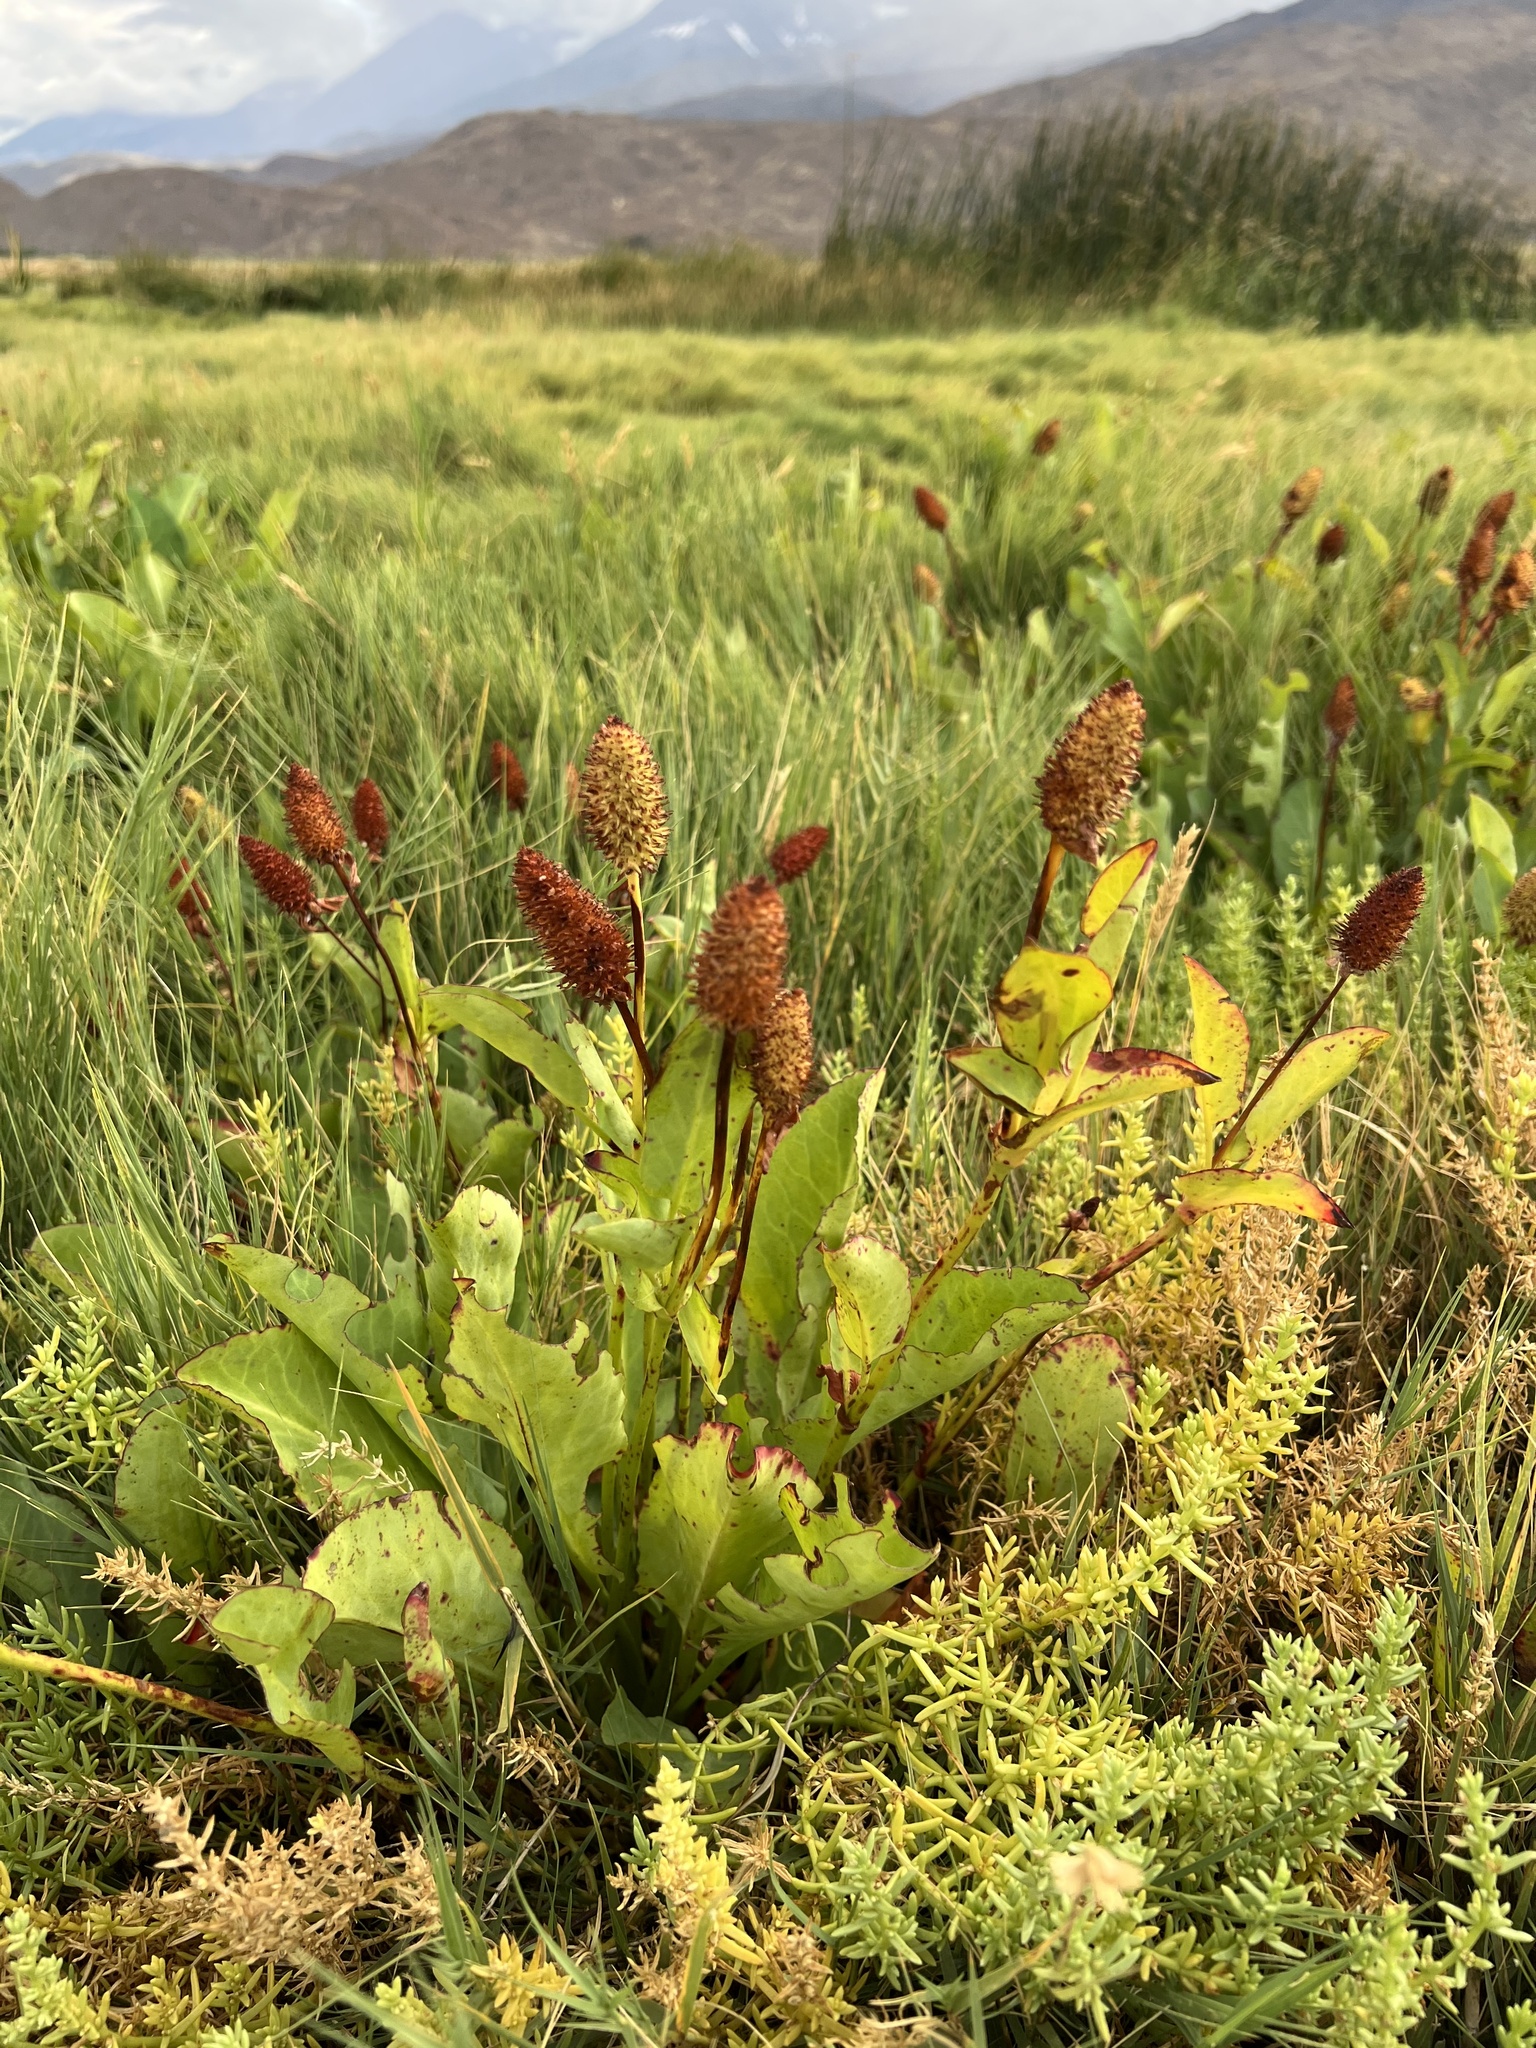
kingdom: Plantae
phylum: Tracheophyta
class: Magnoliopsida
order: Piperales
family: Saururaceae
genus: Anemopsis
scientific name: Anemopsis californica
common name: Apache-beads
